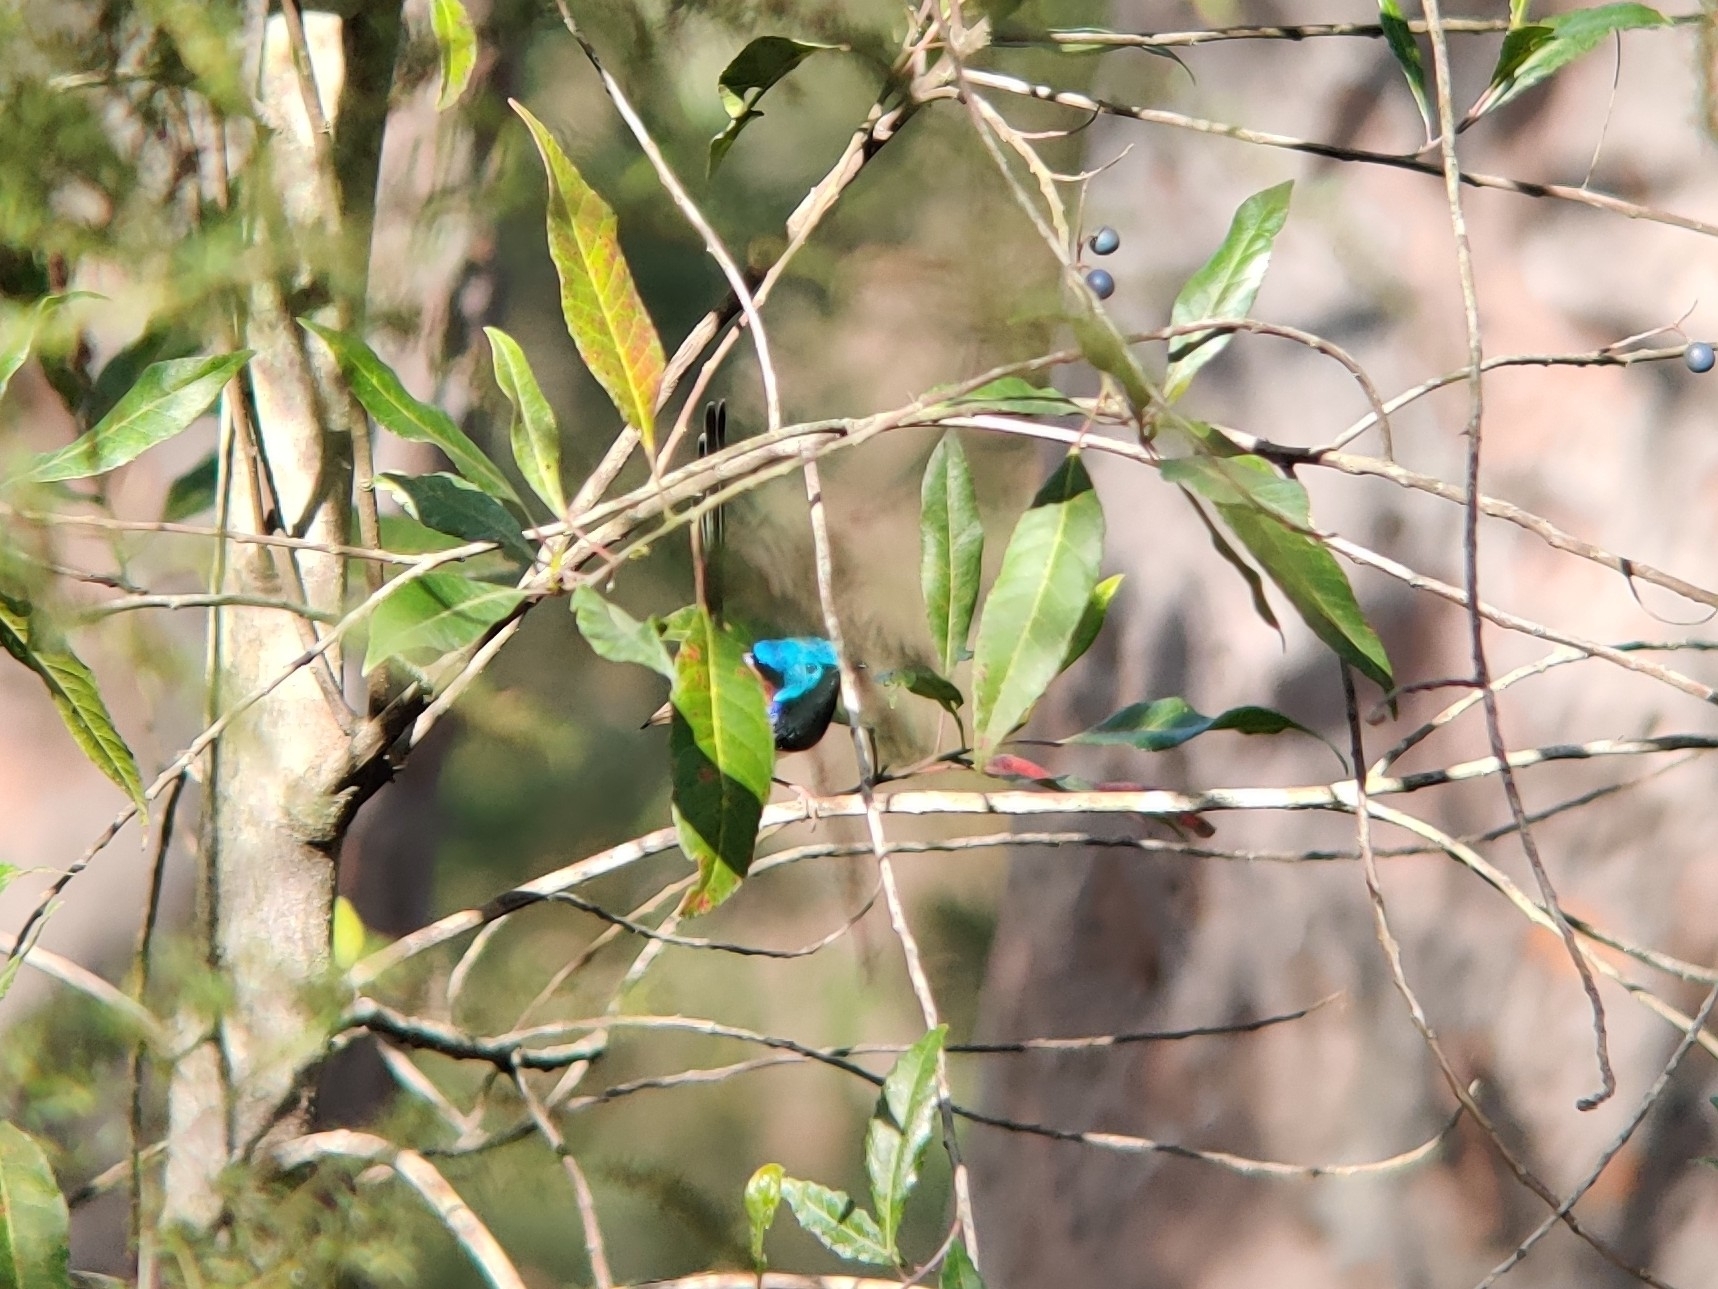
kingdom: Animalia
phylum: Chordata
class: Aves
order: Passeriformes
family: Maluridae
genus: Malurus
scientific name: Malurus lamberti
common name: Variegated fairywren
